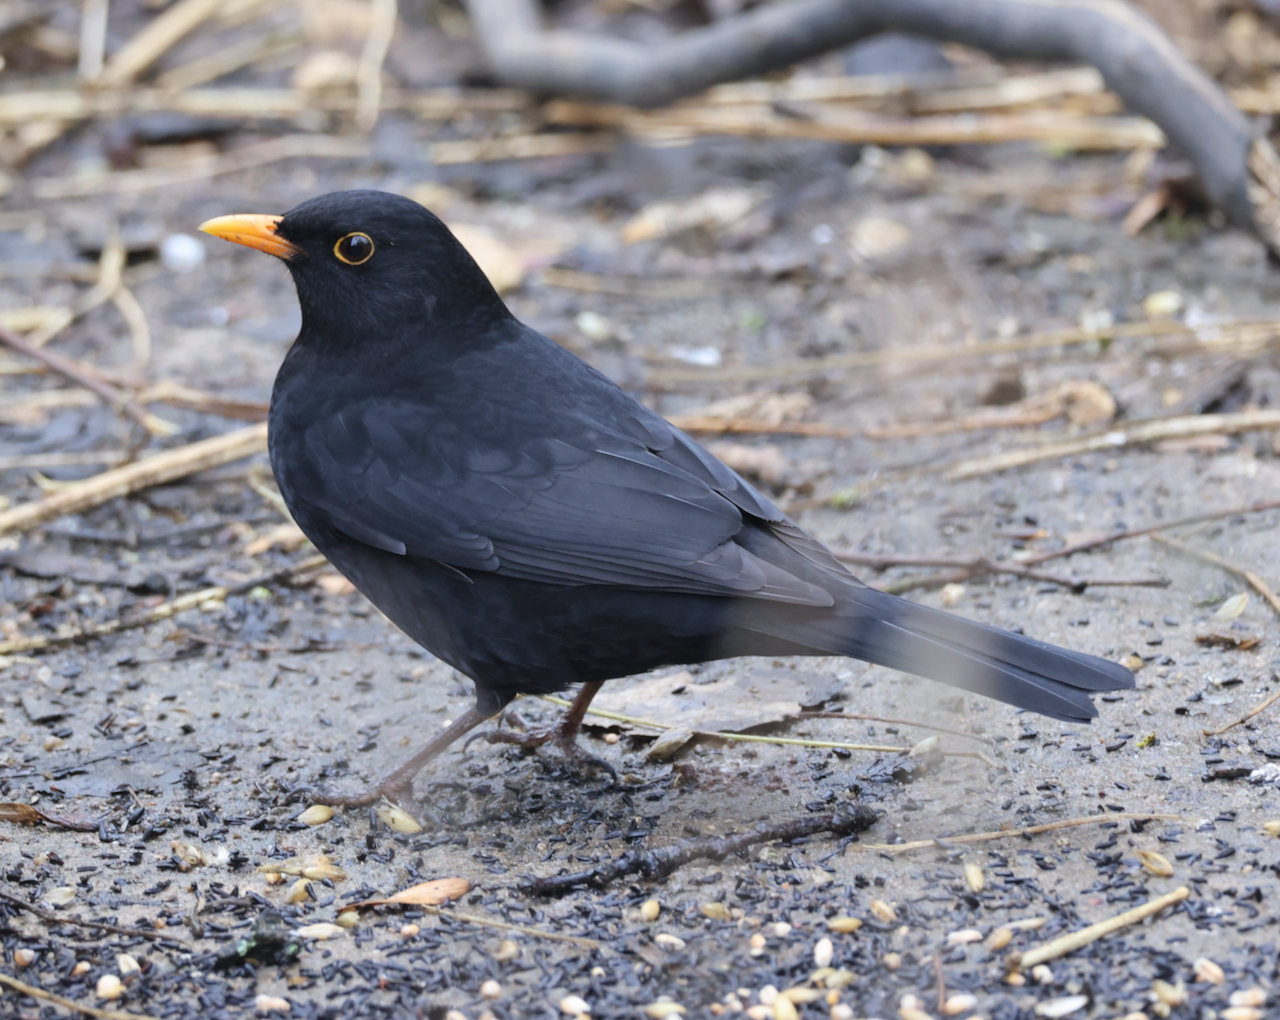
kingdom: Animalia
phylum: Chordata
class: Aves
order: Passeriformes
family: Turdidae
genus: Turdus
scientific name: Turdus merula
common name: Common blackbird
